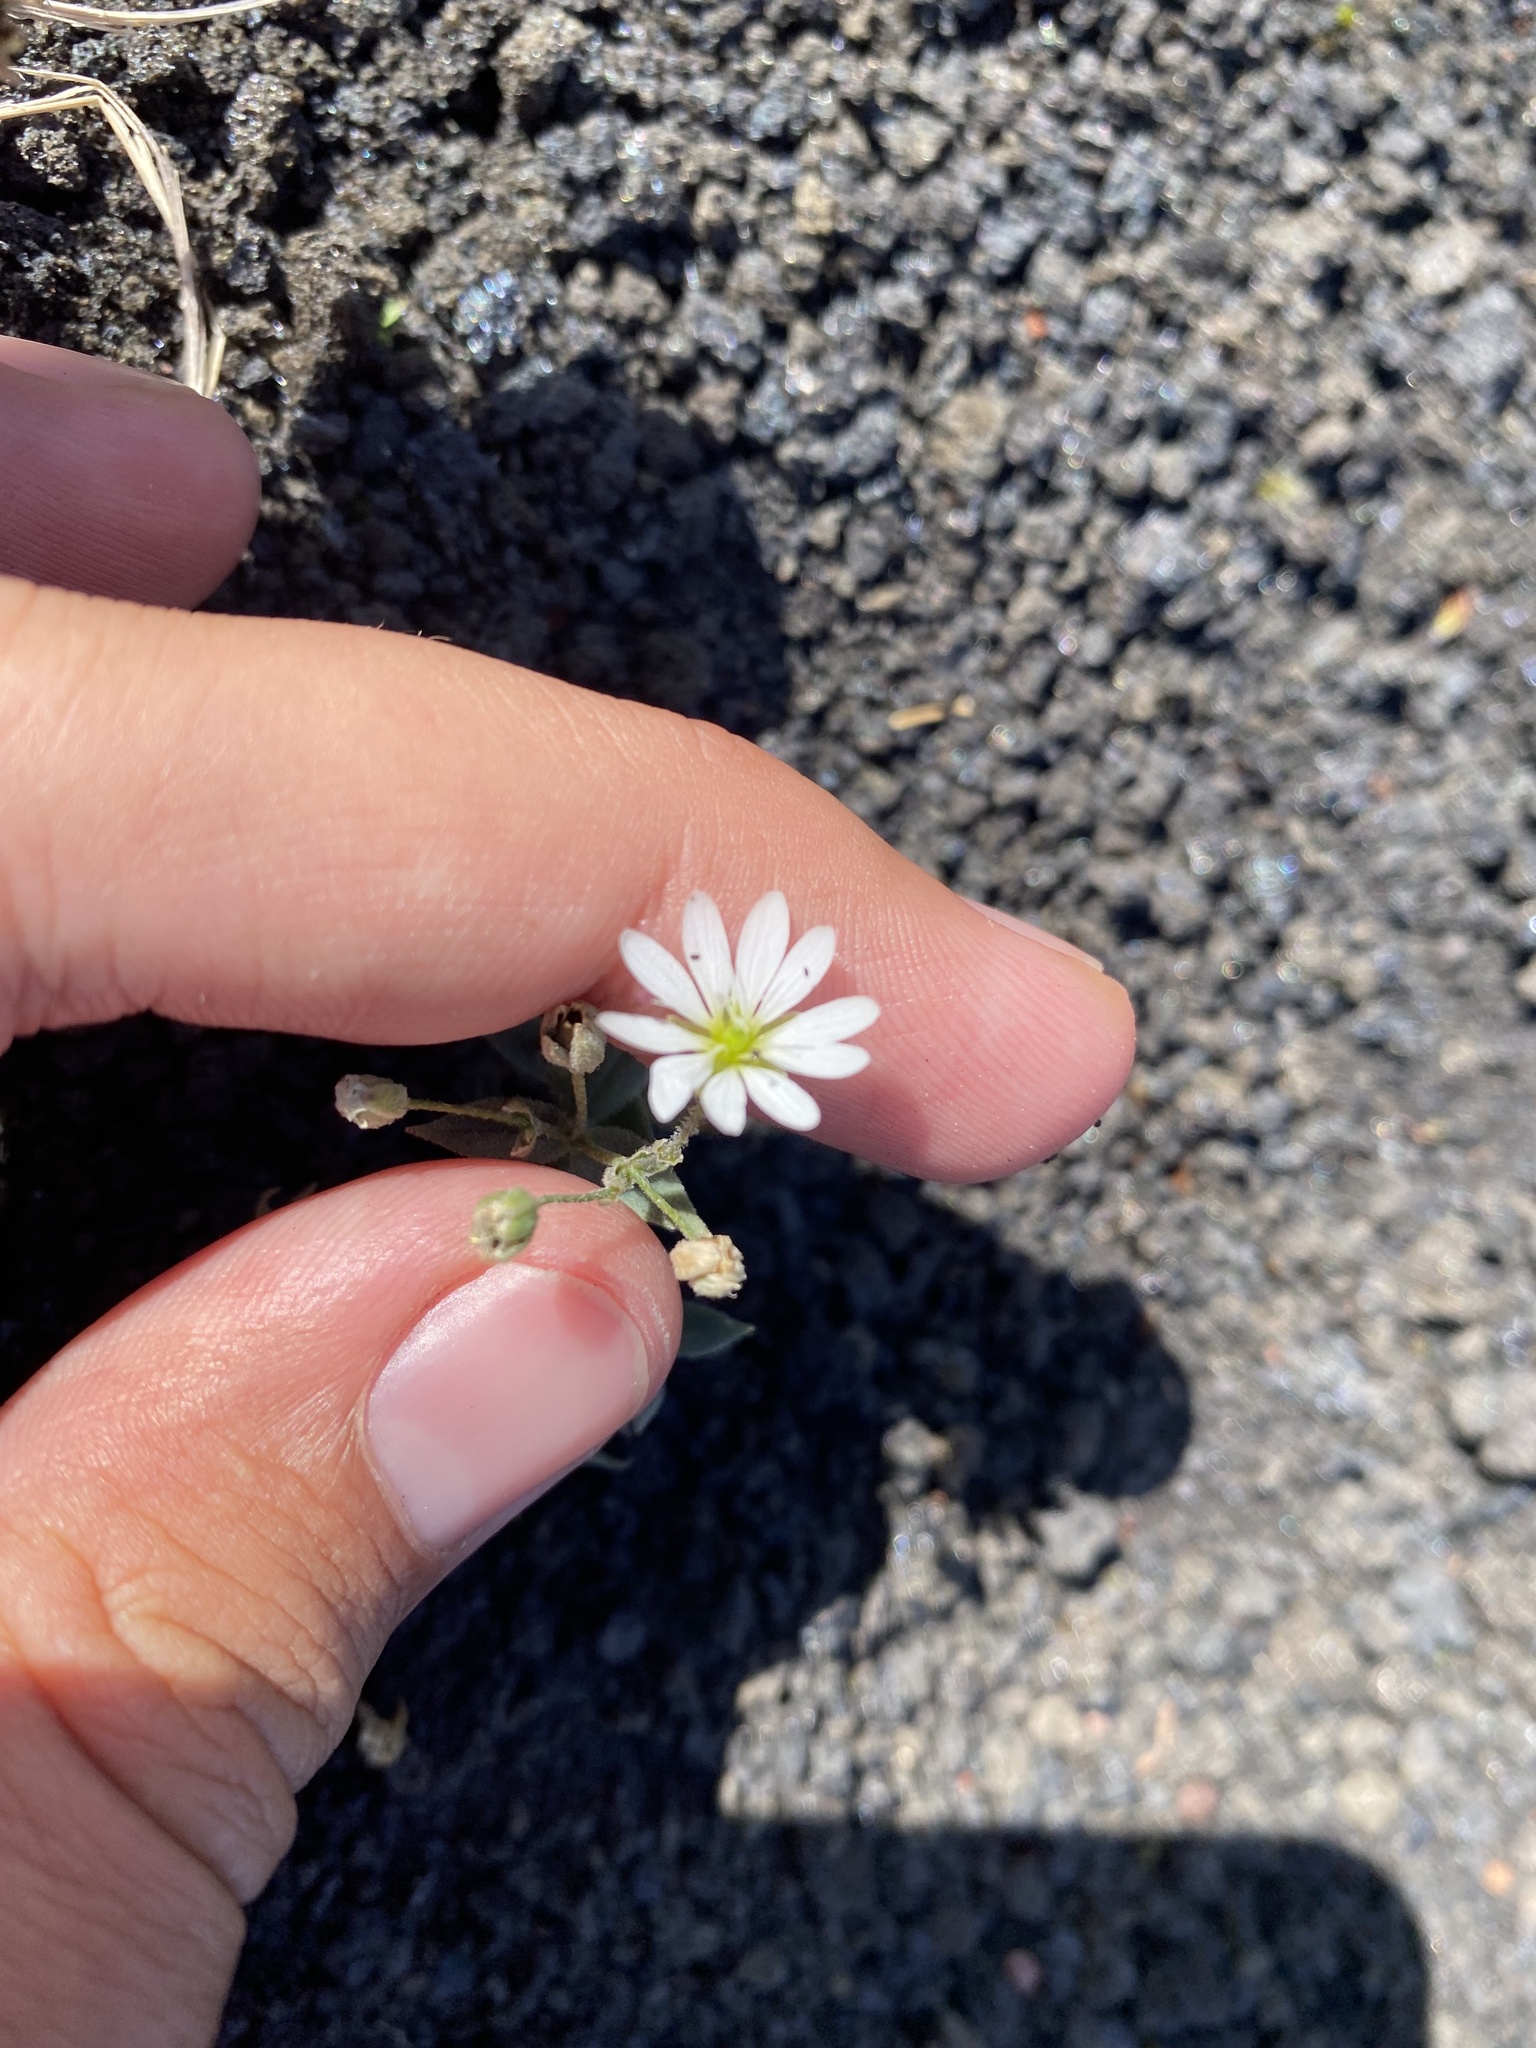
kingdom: Plantae
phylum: Tracheophyta
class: Magnoliopsida
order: Caryophyllales
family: Caryophyllaceae
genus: Stellaria
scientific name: Stellaria eschscholtziana
